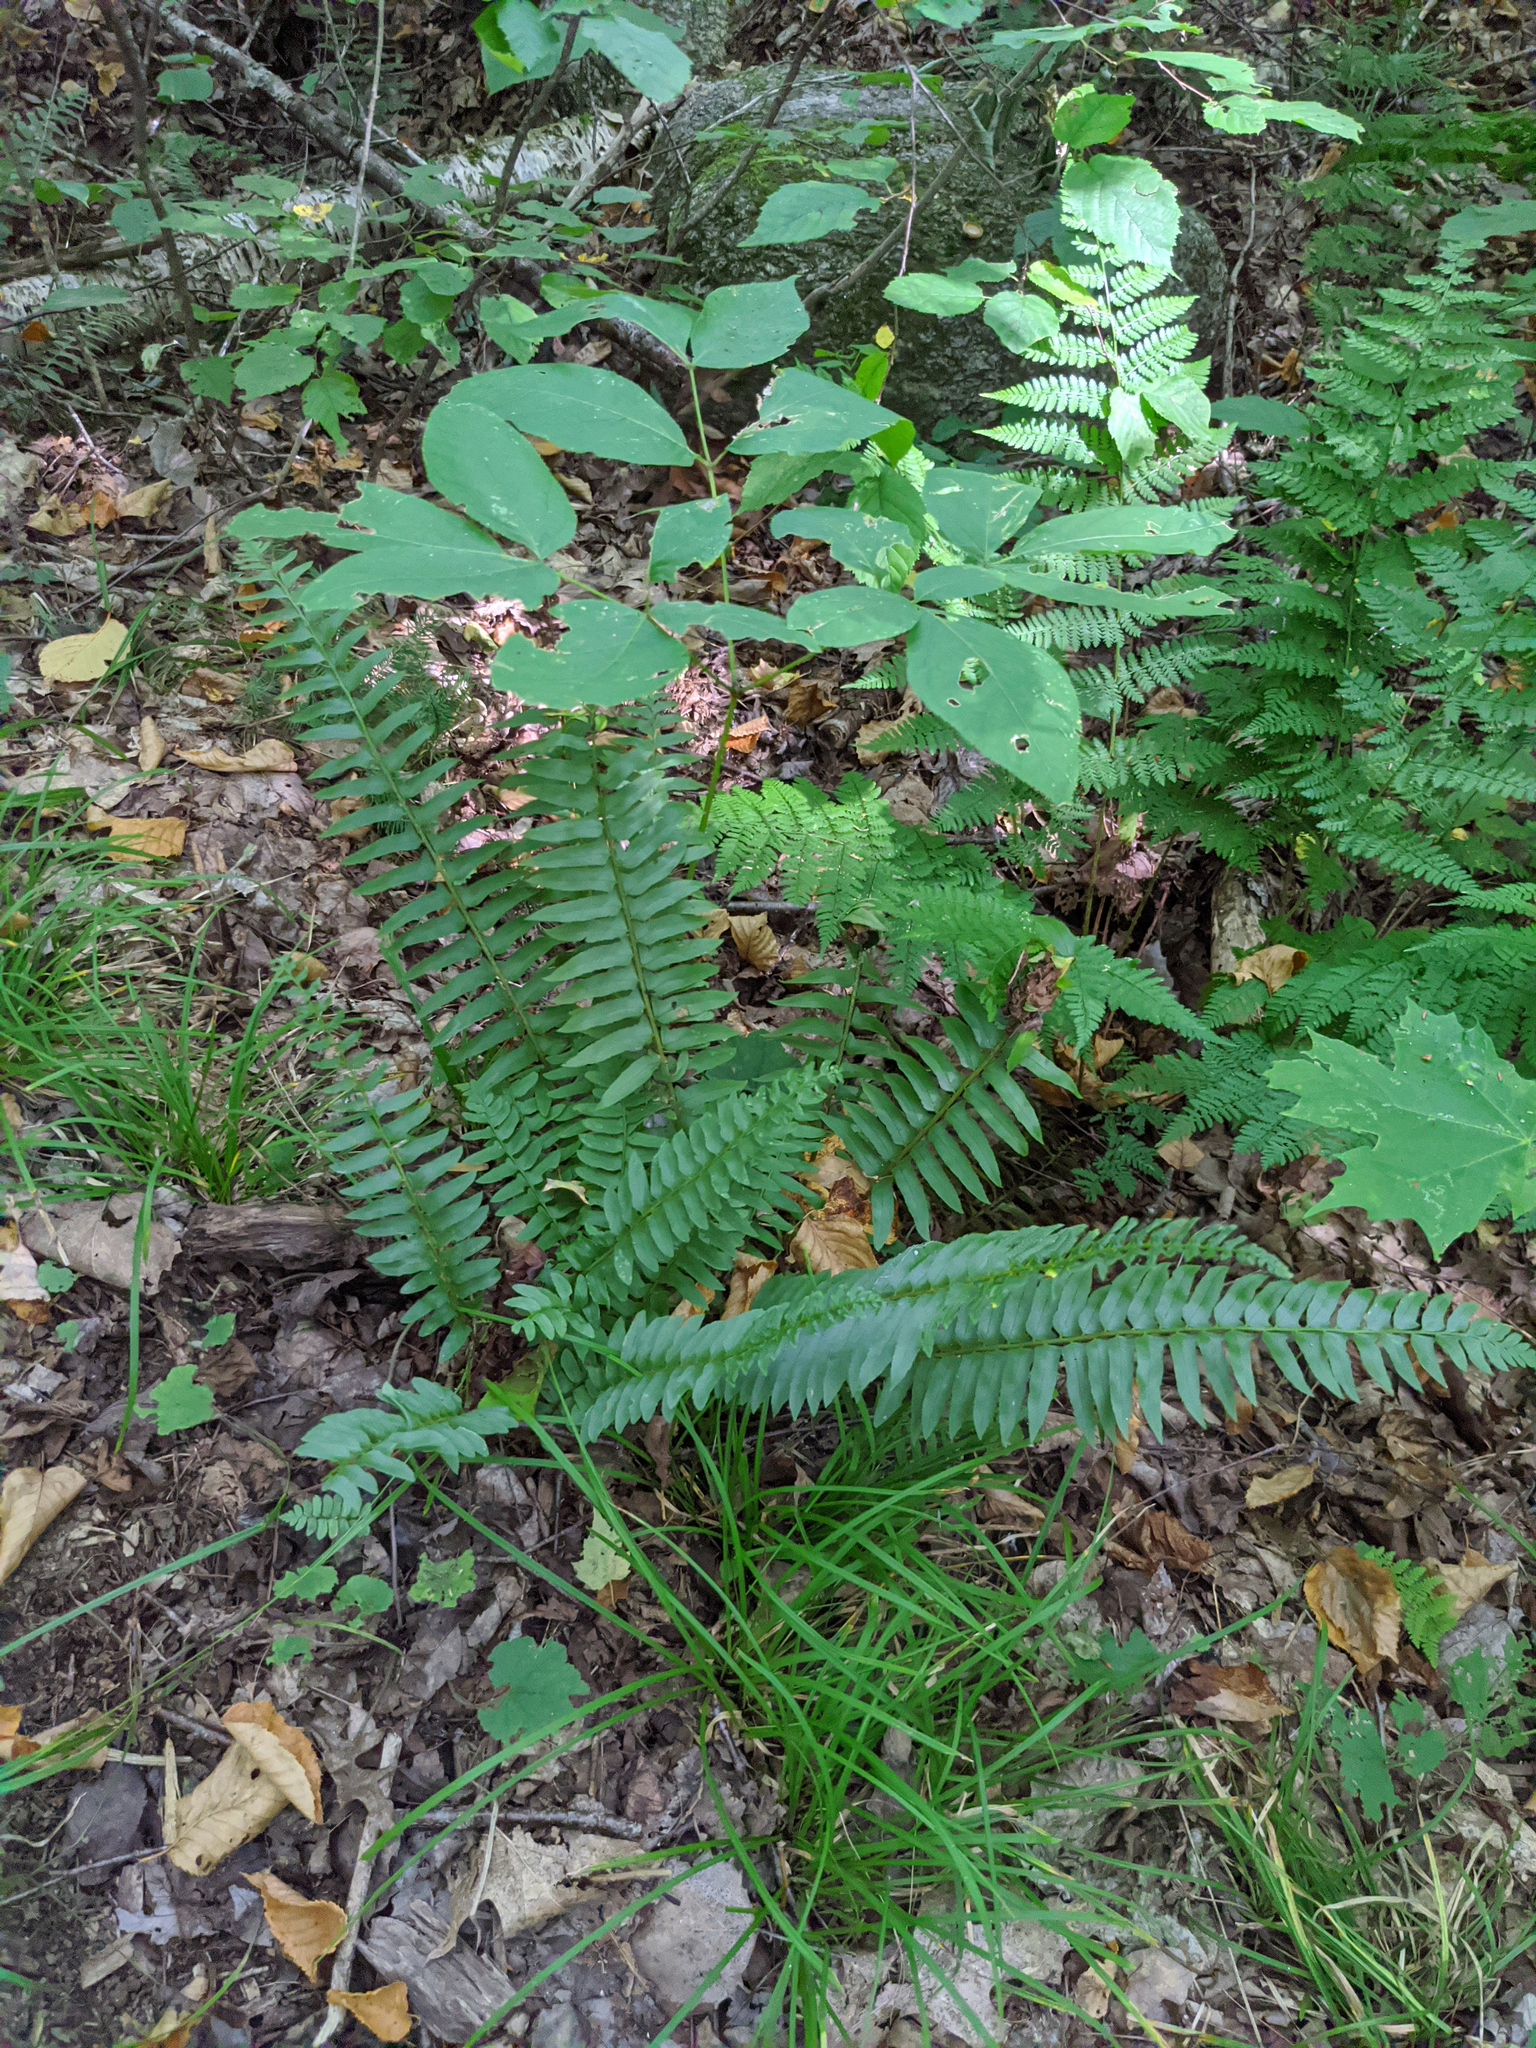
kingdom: Plantae
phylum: Tracheophyta
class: Polypodiopsida
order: Polypodiales
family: Dryopteridaceae
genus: Polystichum
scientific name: Polystichum acrostichoides
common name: Christmas fern
